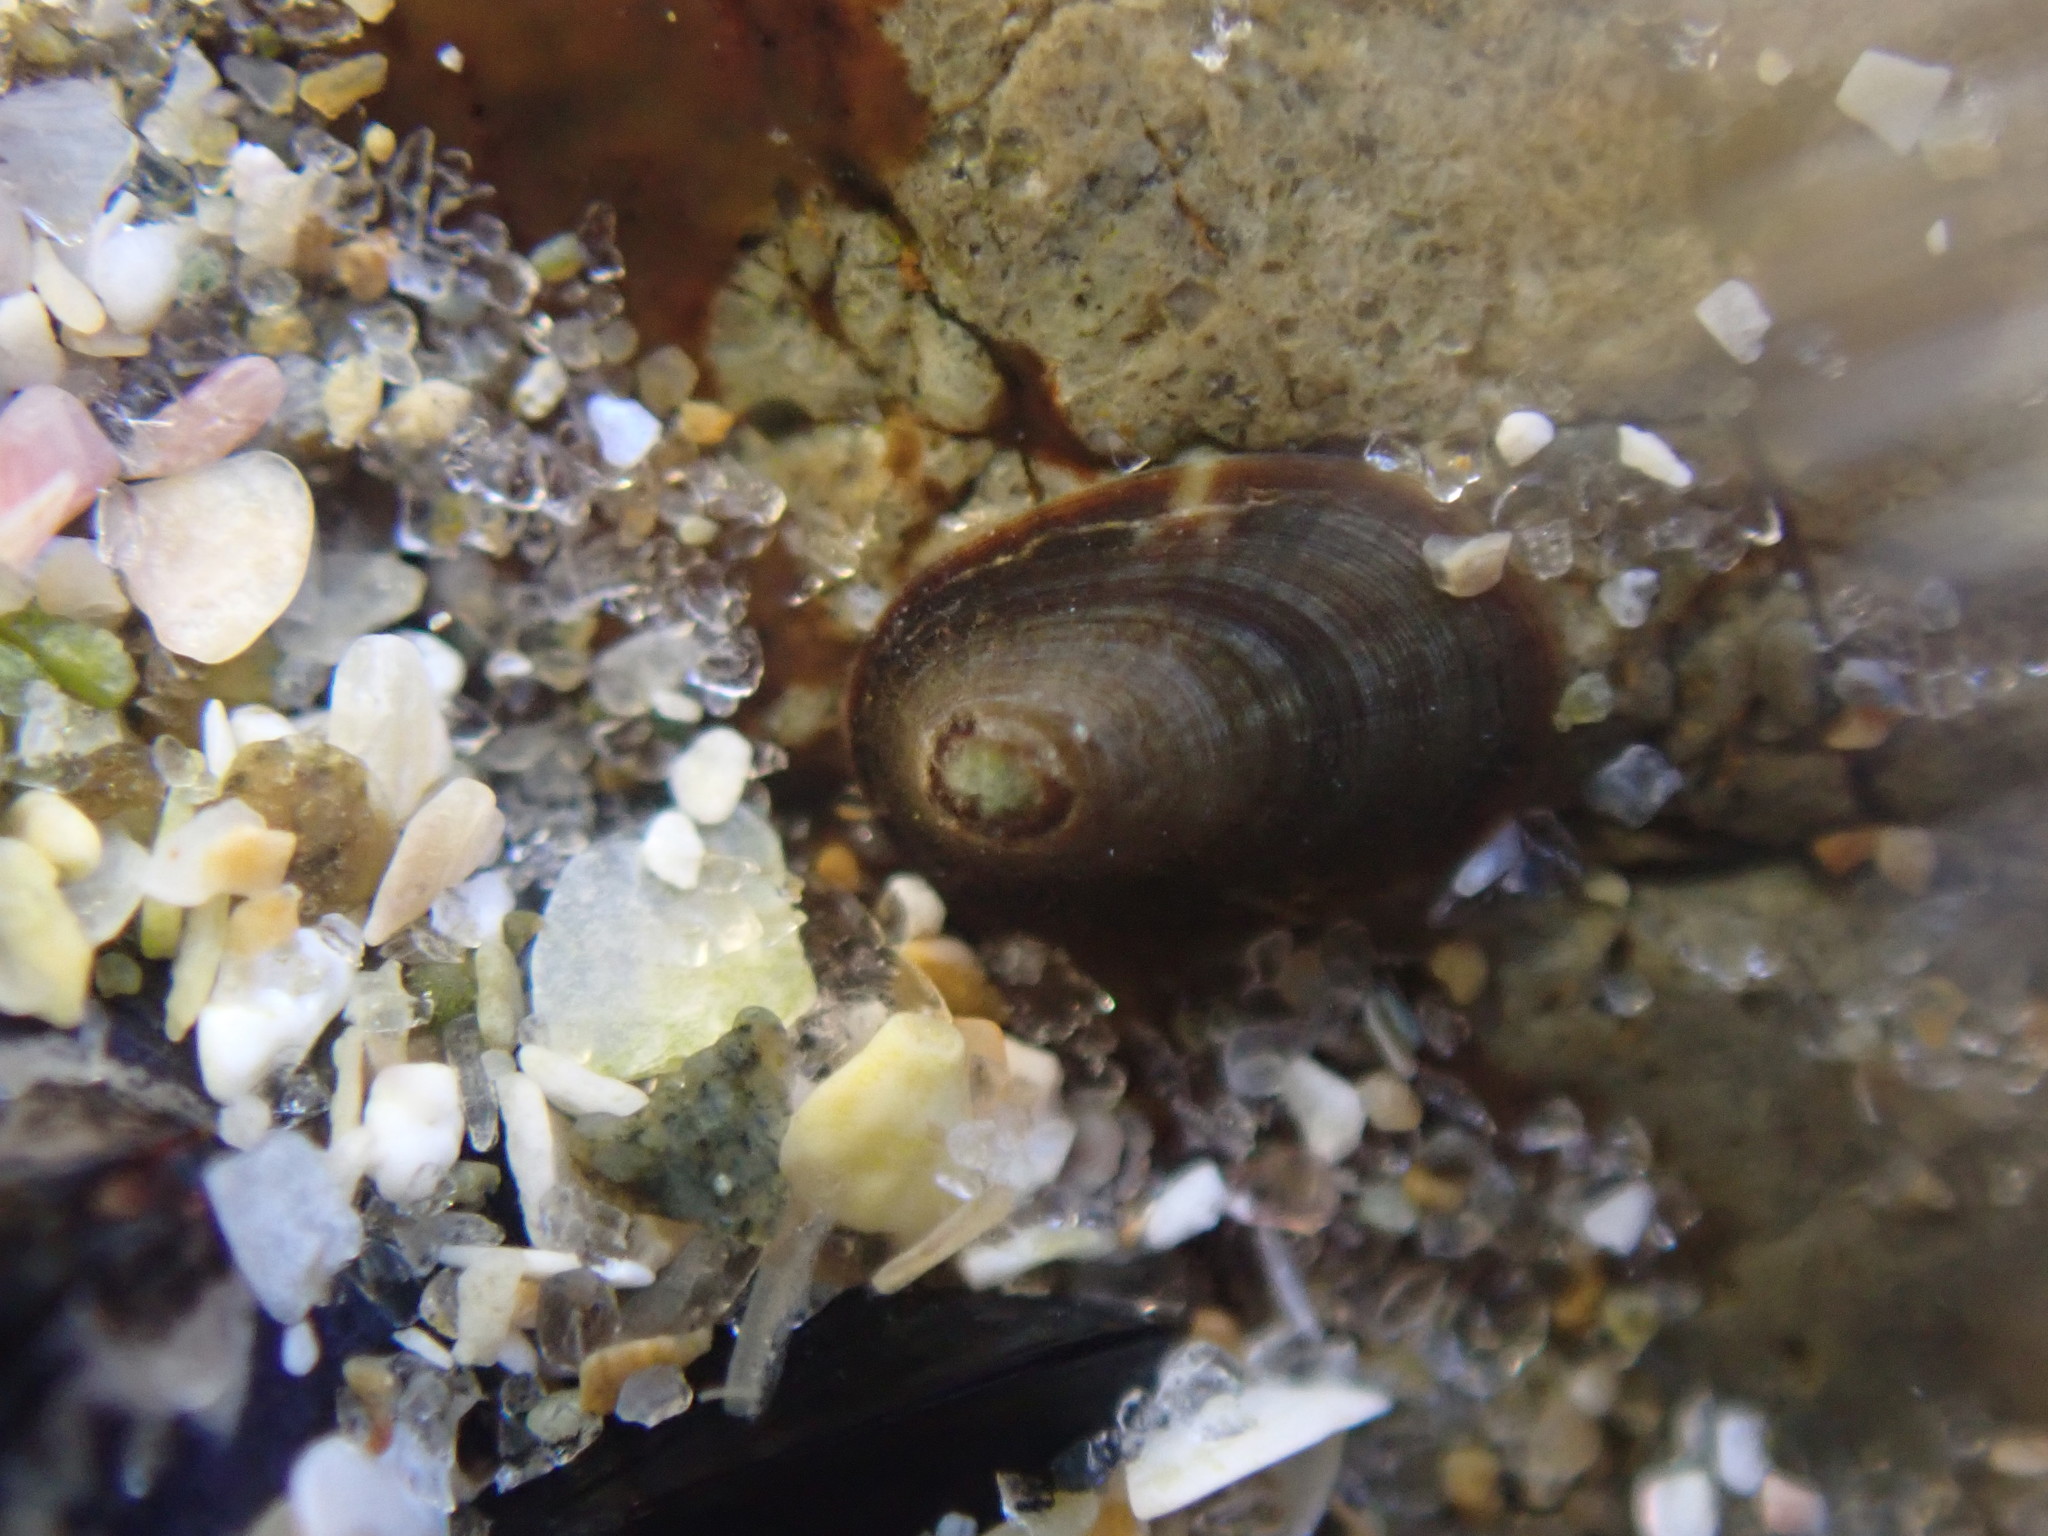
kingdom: Animalia
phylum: Mollusca
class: Gastropoda
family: Lottiidae
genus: Notoacmea
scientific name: Notoacmea
